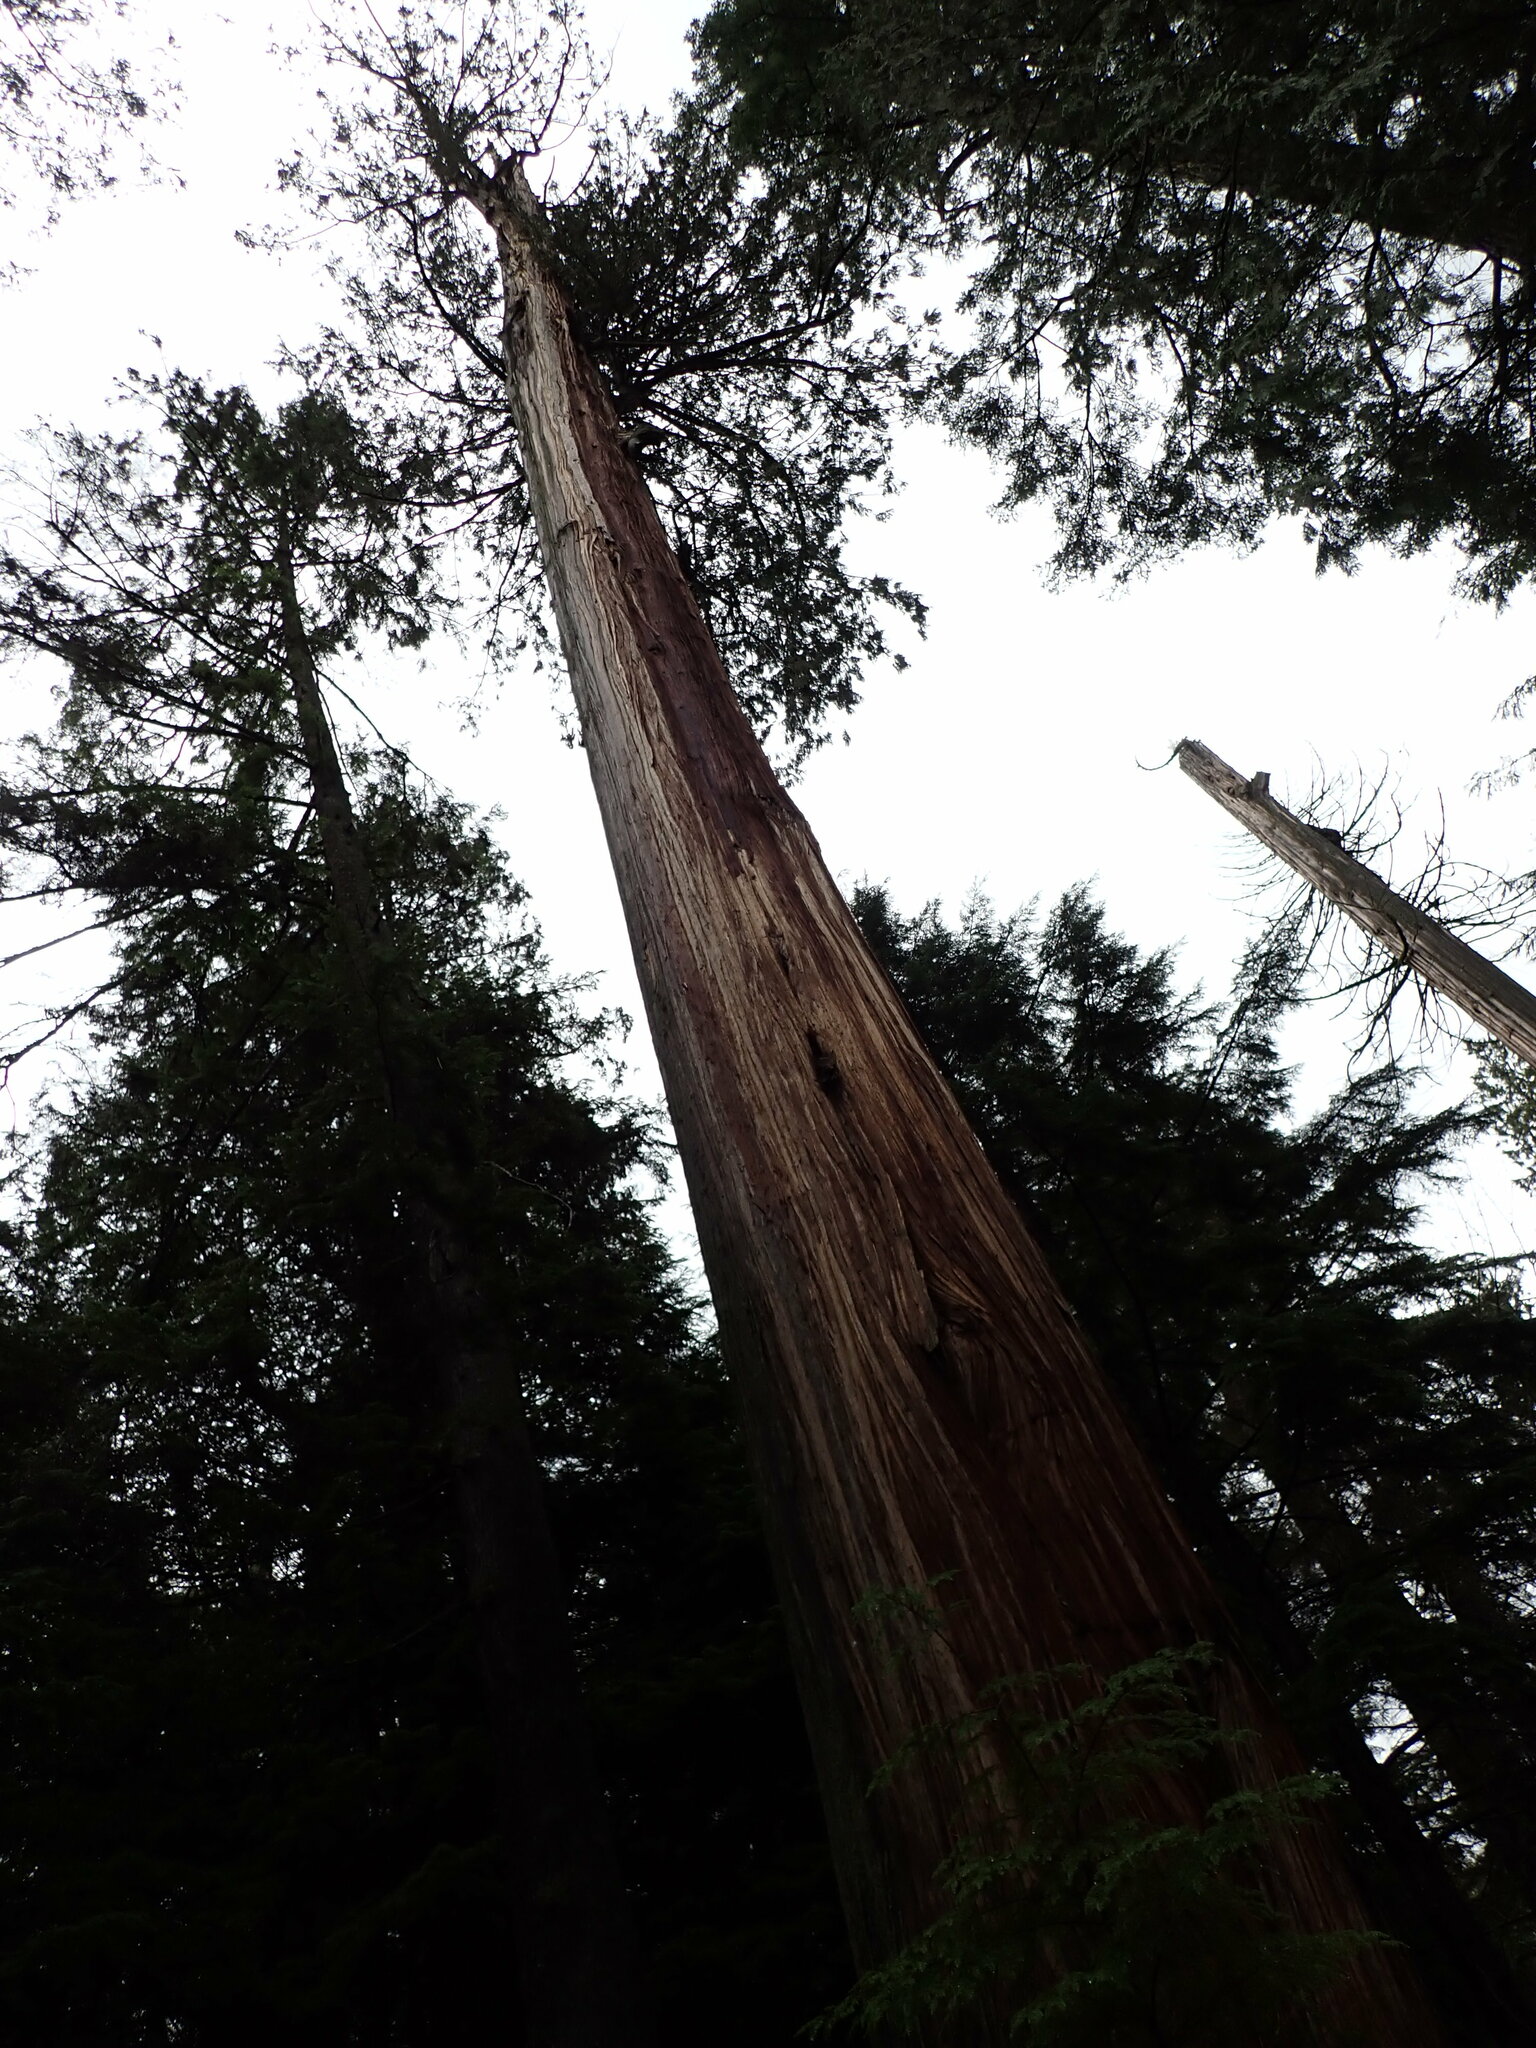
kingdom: Plantae
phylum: Tracheophyta
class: Pinopsida
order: Pinales
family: Cupressaceae
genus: Thuja
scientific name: Thuja plicata
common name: Western red-cedar
